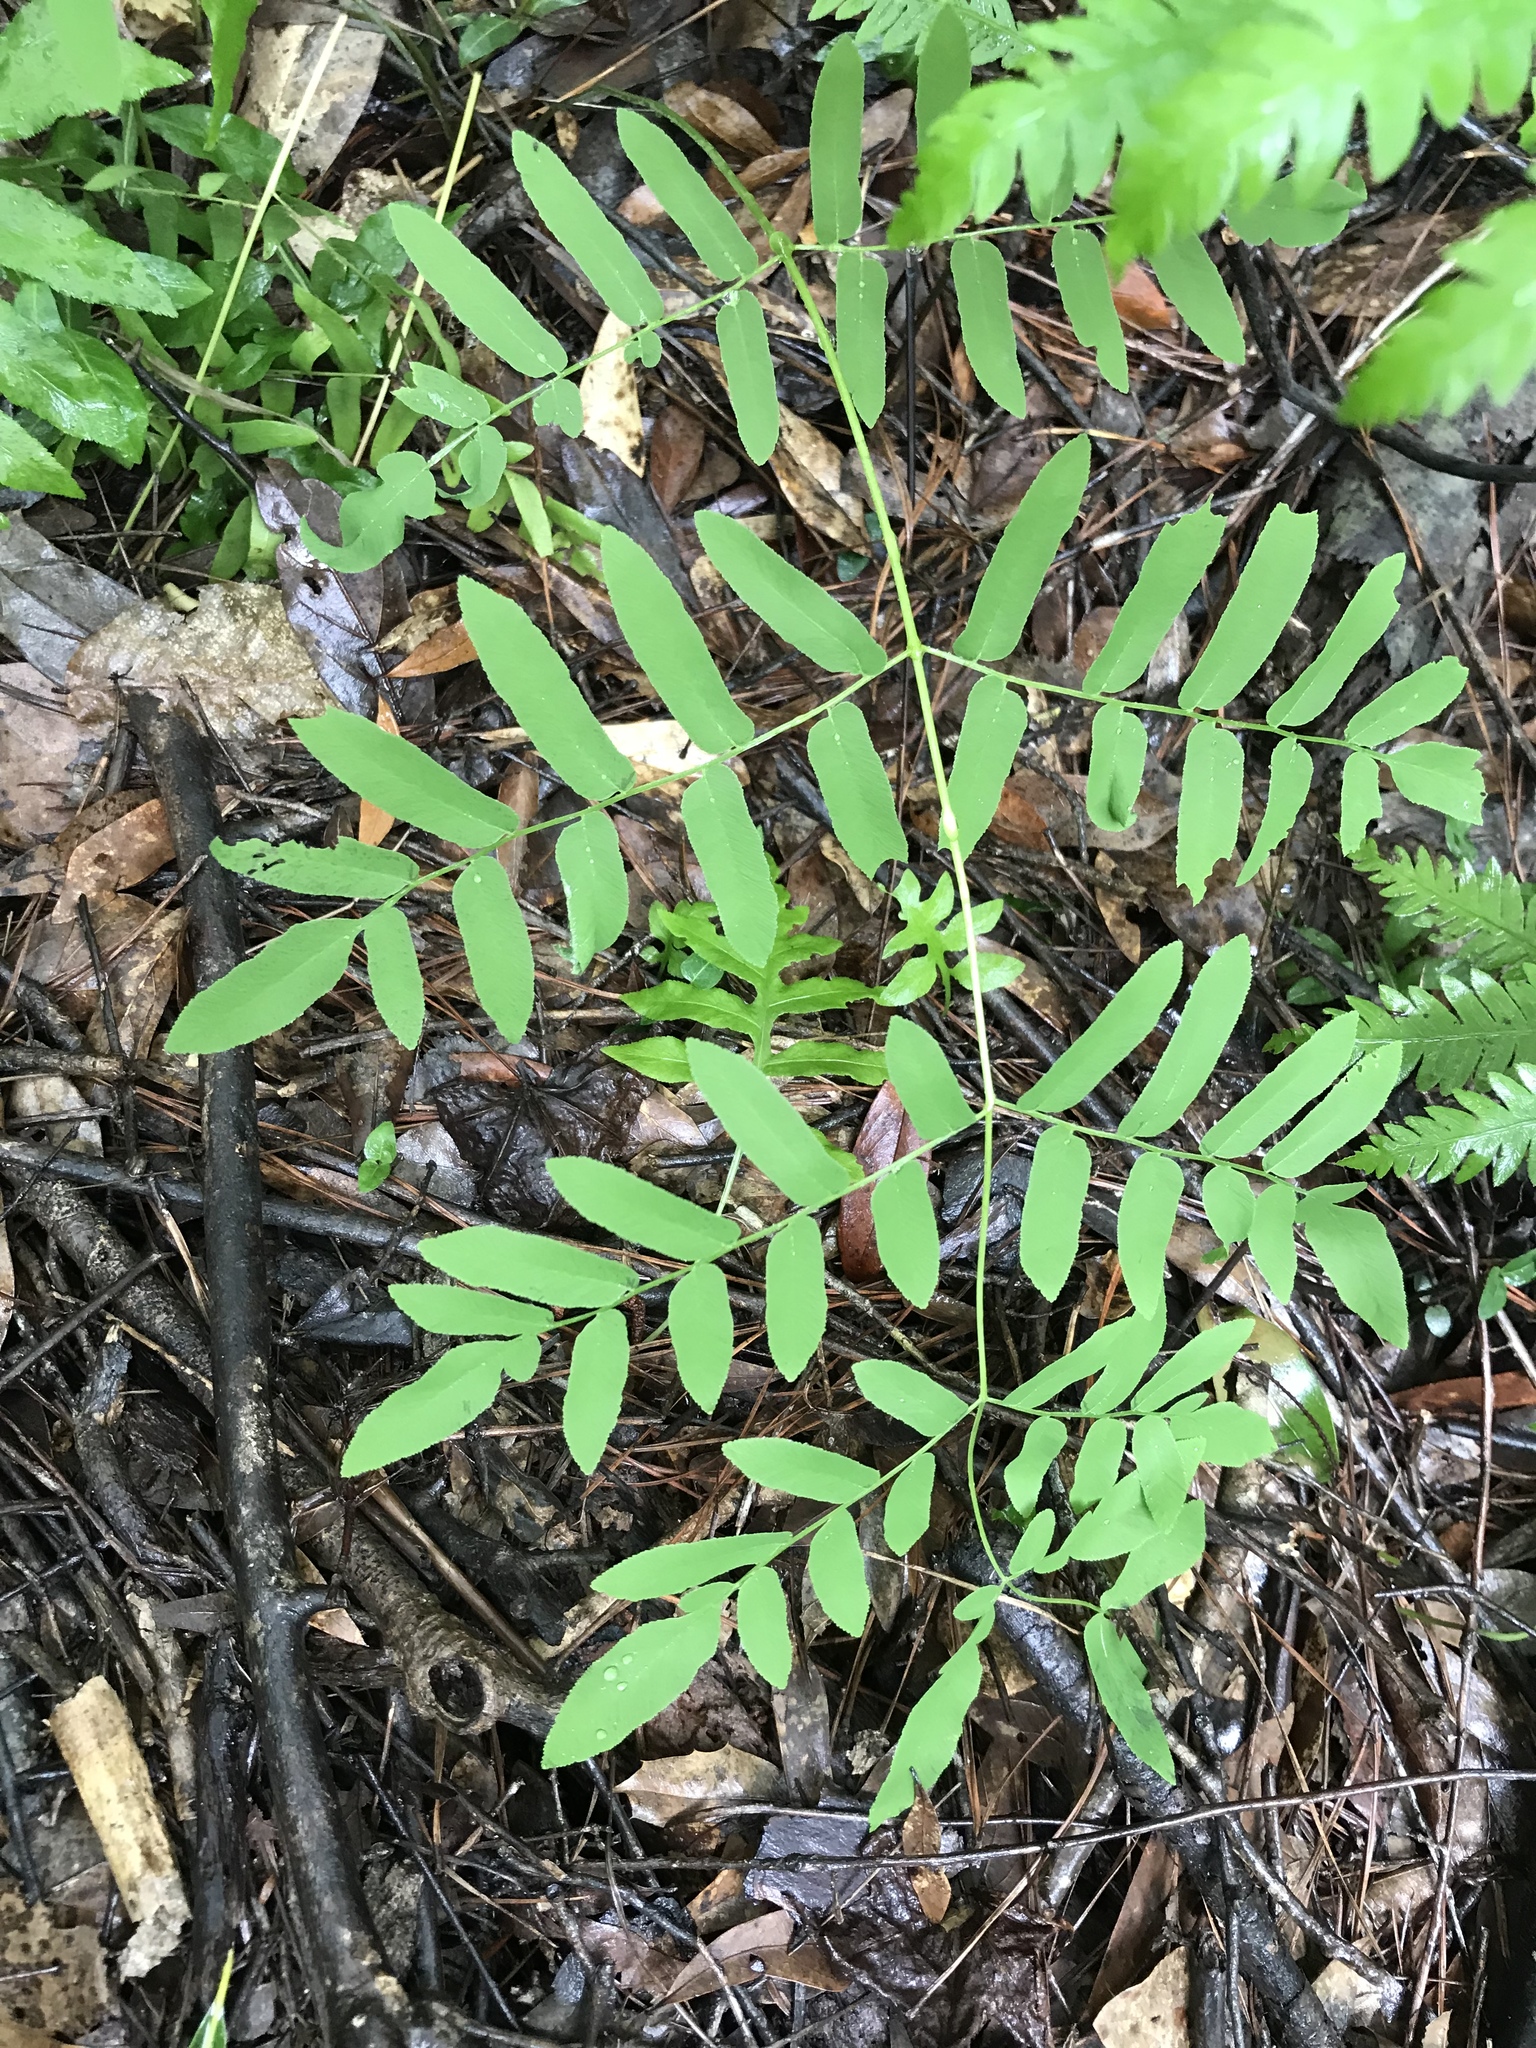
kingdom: Plantae
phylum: Tracheophyta
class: Polypodiopsida
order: Osmundales
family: Osmundaceae
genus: Osmunda
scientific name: Osmunda spectabilis
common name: American royal fern
